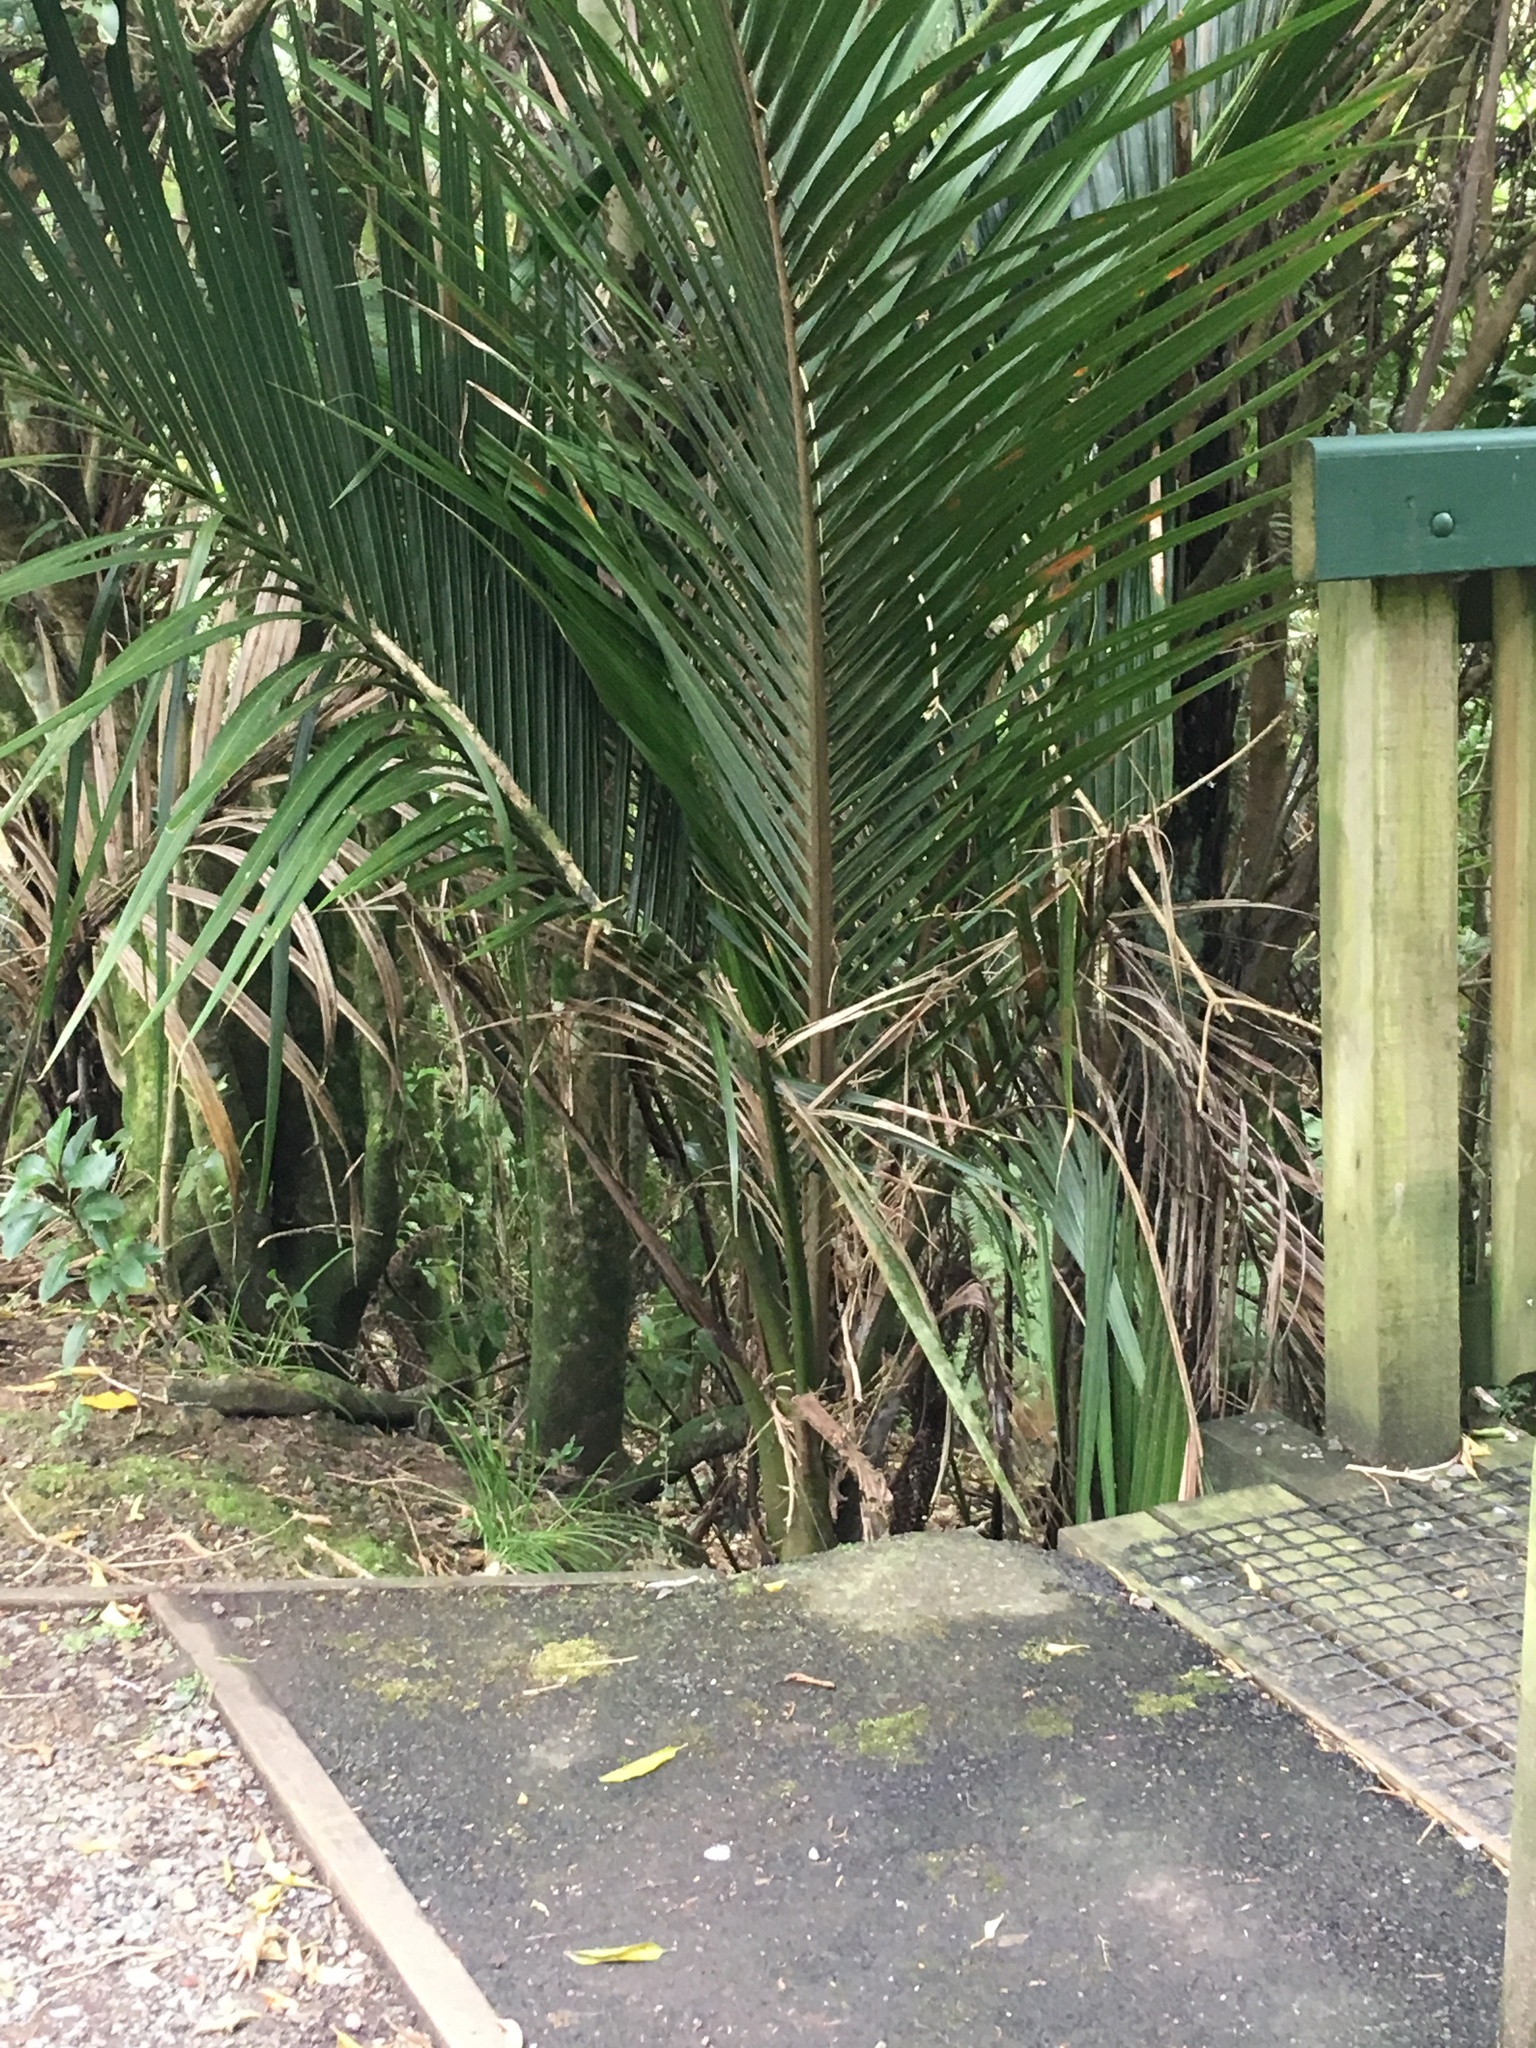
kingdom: Plantae
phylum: Tracheophyta
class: Liliopsida
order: Arecales
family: Arecaceae
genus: Rhopalostylis
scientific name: Rhopalostylis sapida
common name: Feather-duster palm
